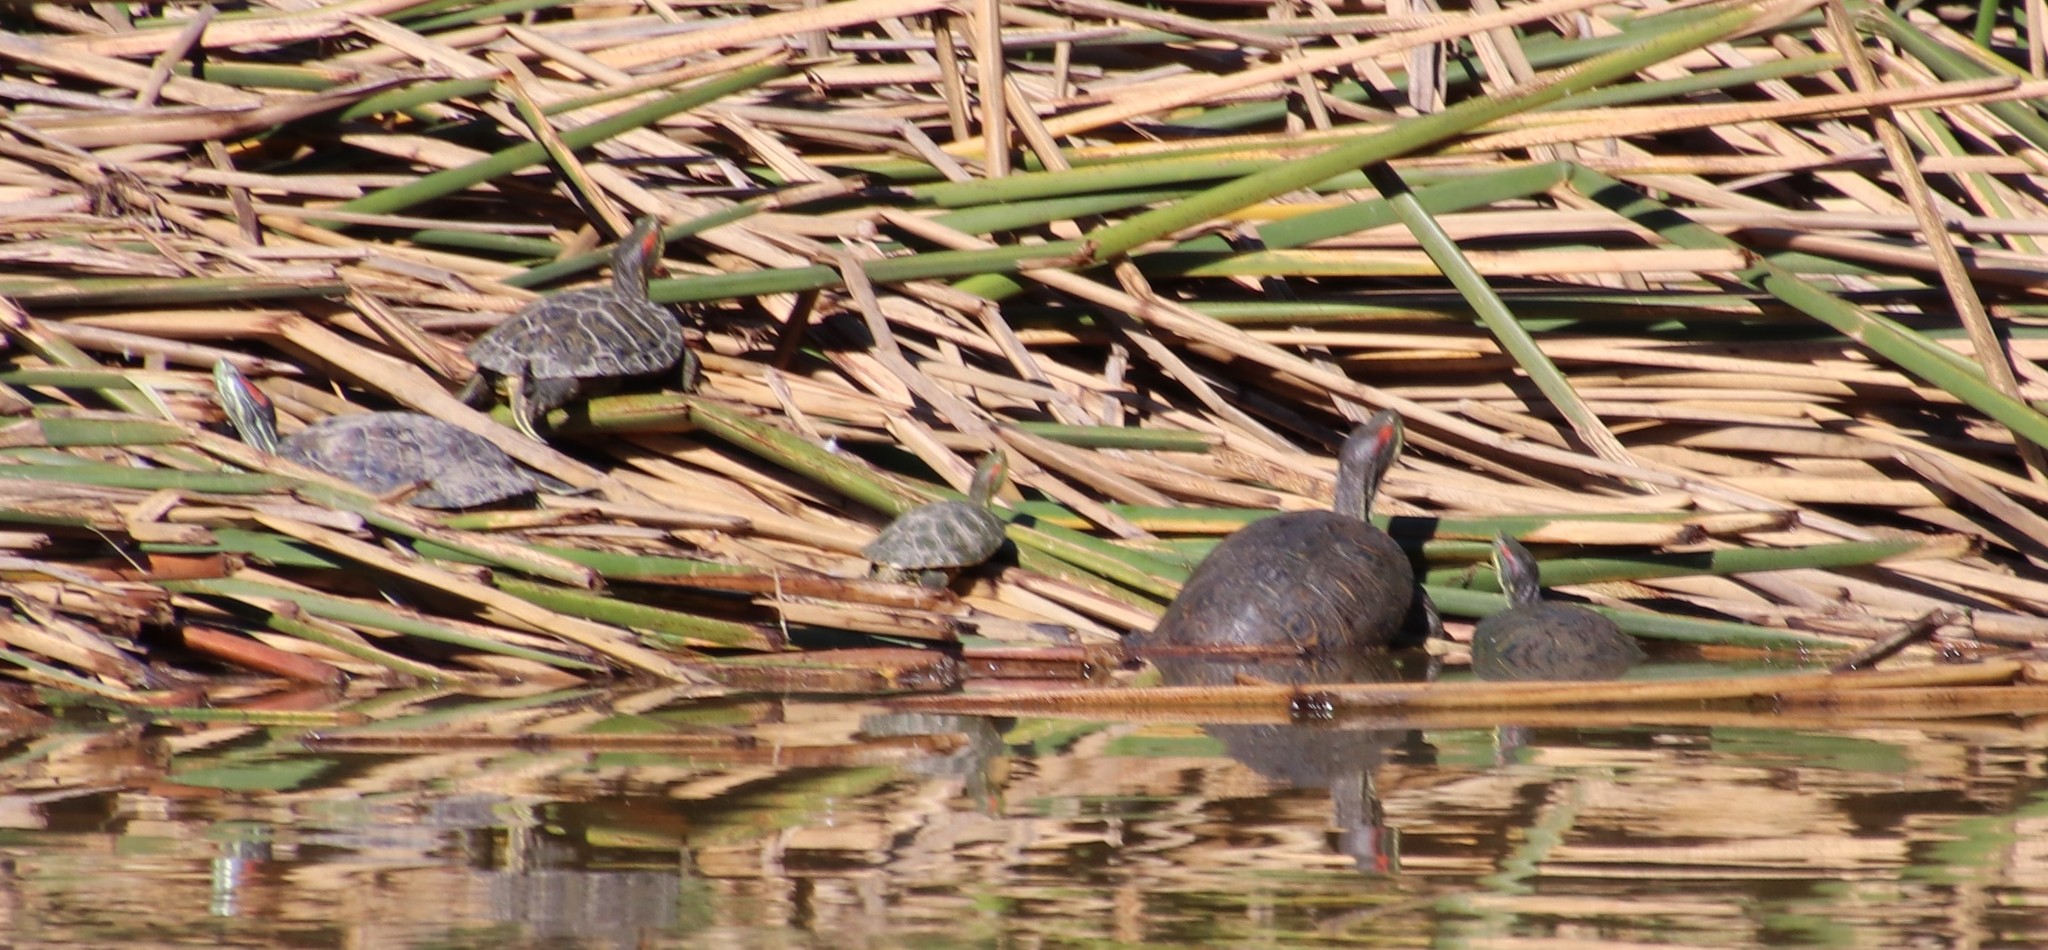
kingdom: Animalia
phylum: Chordata
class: Testudines
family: Emydidae
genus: Trachemys
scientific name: Trachemys scripta
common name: Slider
